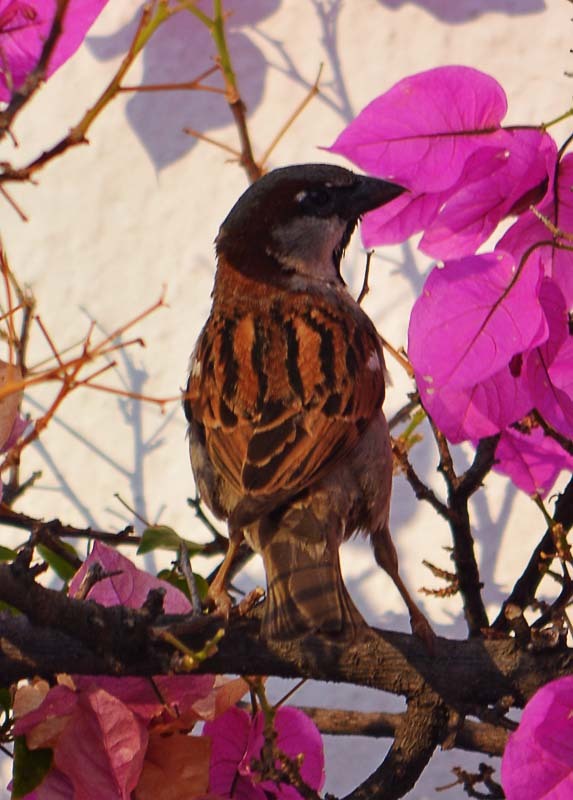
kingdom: Animalia
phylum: Chordata
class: Aves
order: Passeriformes
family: Passeridae
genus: Passer
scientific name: Passer domesticus
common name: House sparrow
